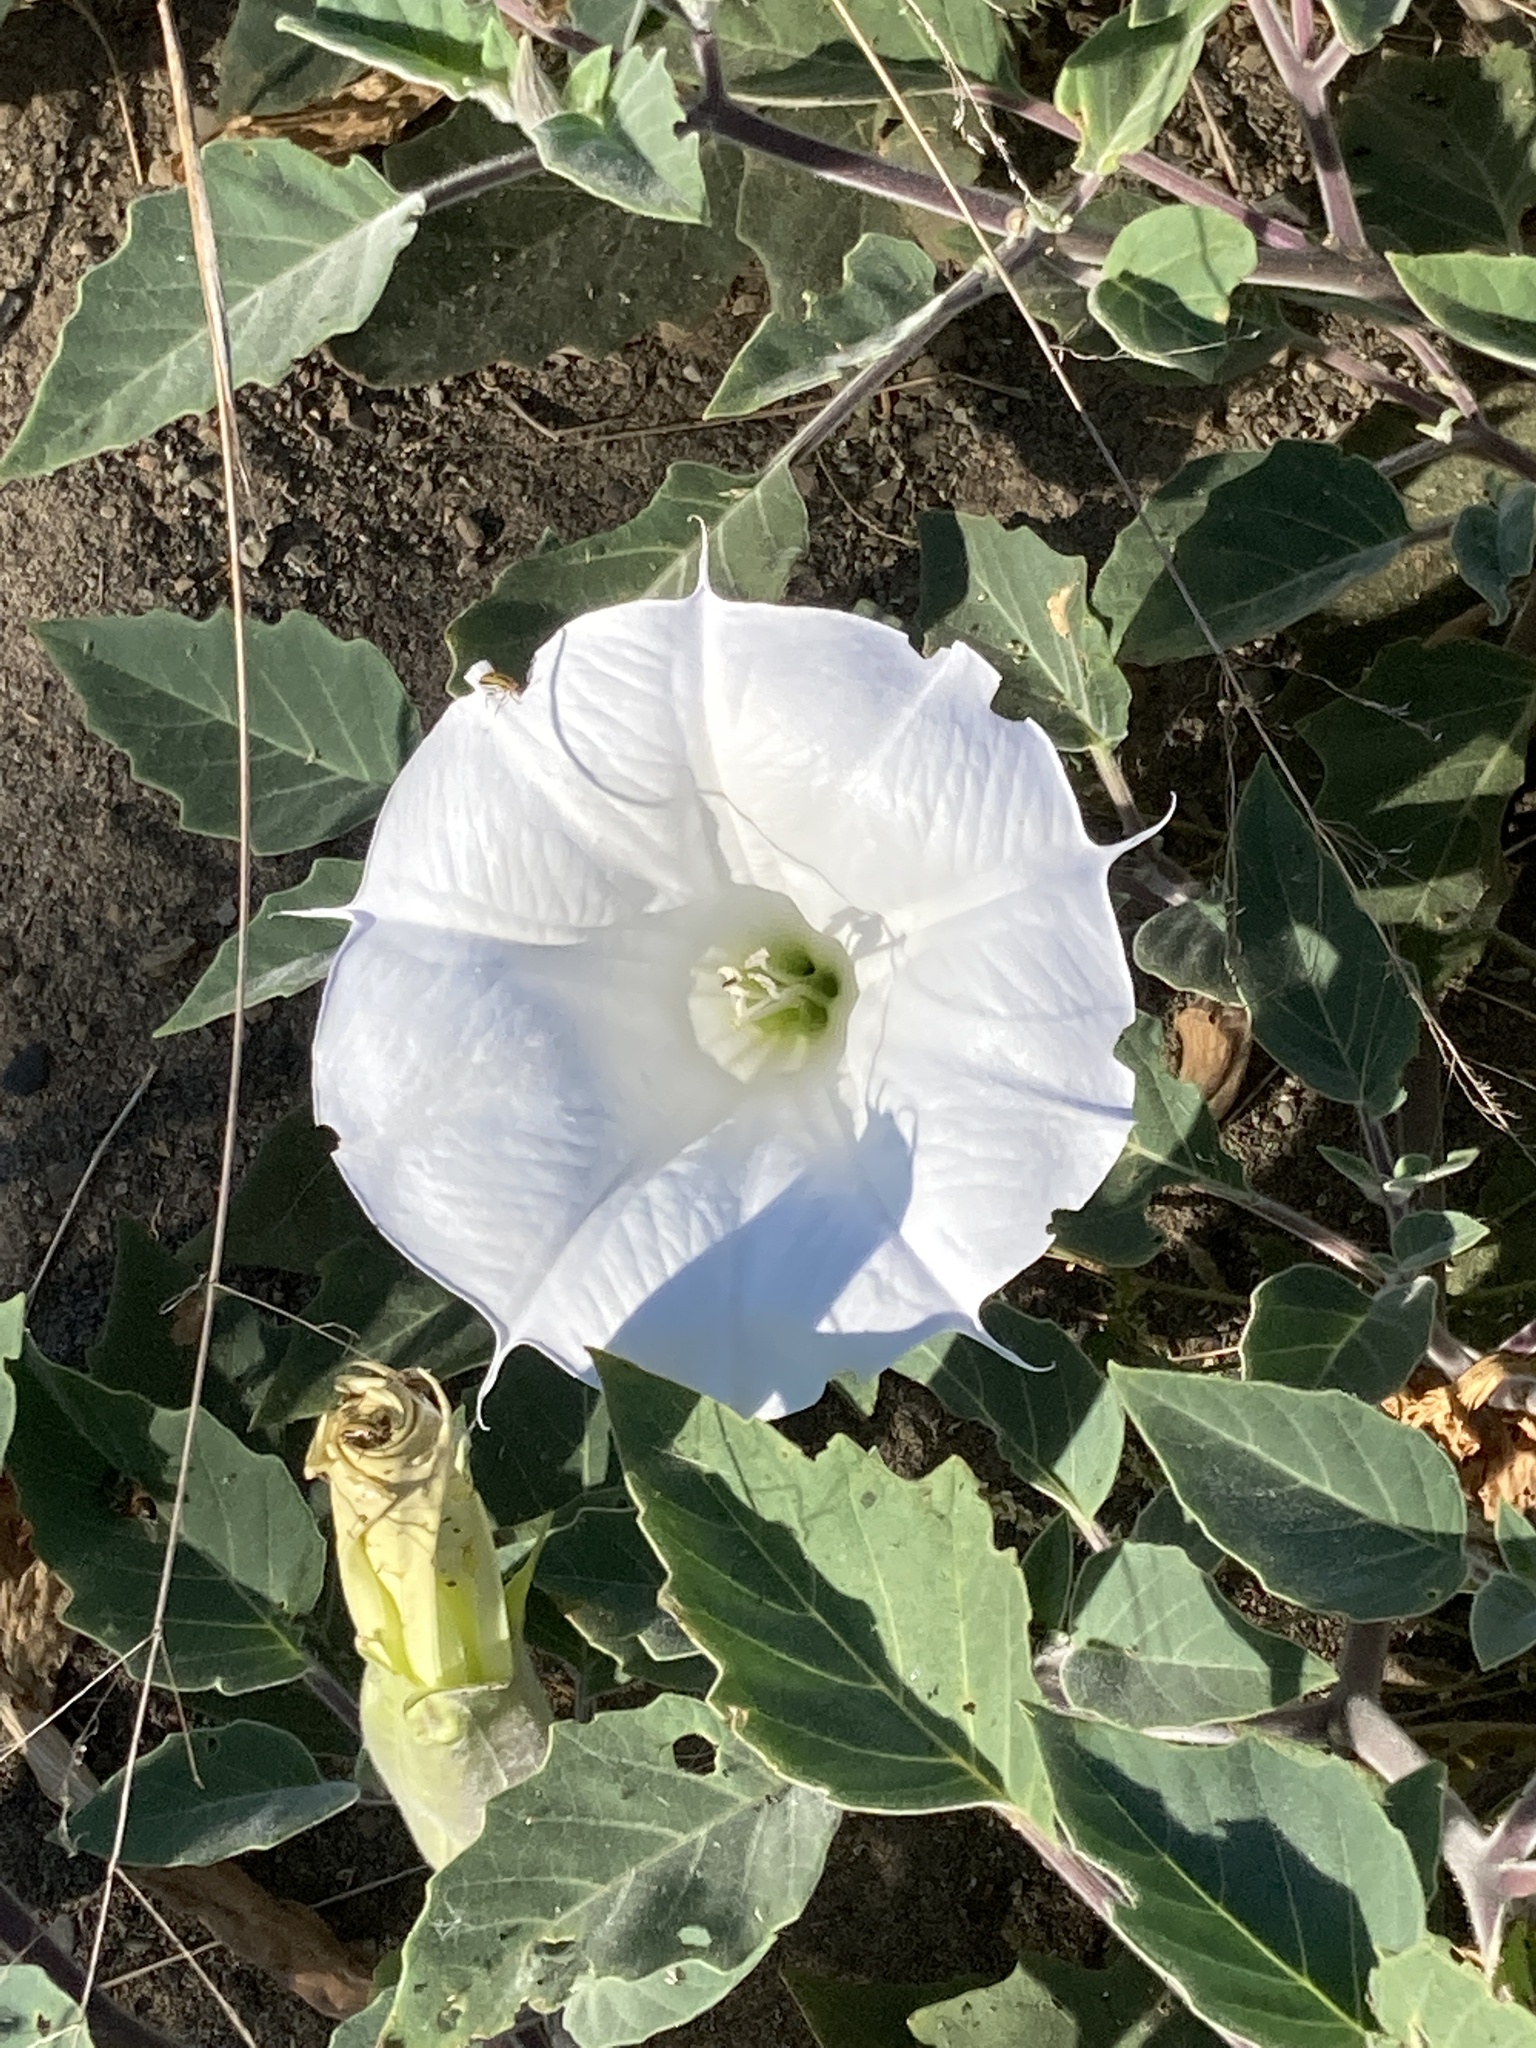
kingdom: Plantae
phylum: Tracheophyta
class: Magnoliopsida
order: Solanales
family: Solanaceae
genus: Datura
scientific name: Datura wrightii
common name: Sacred thorn-apple
